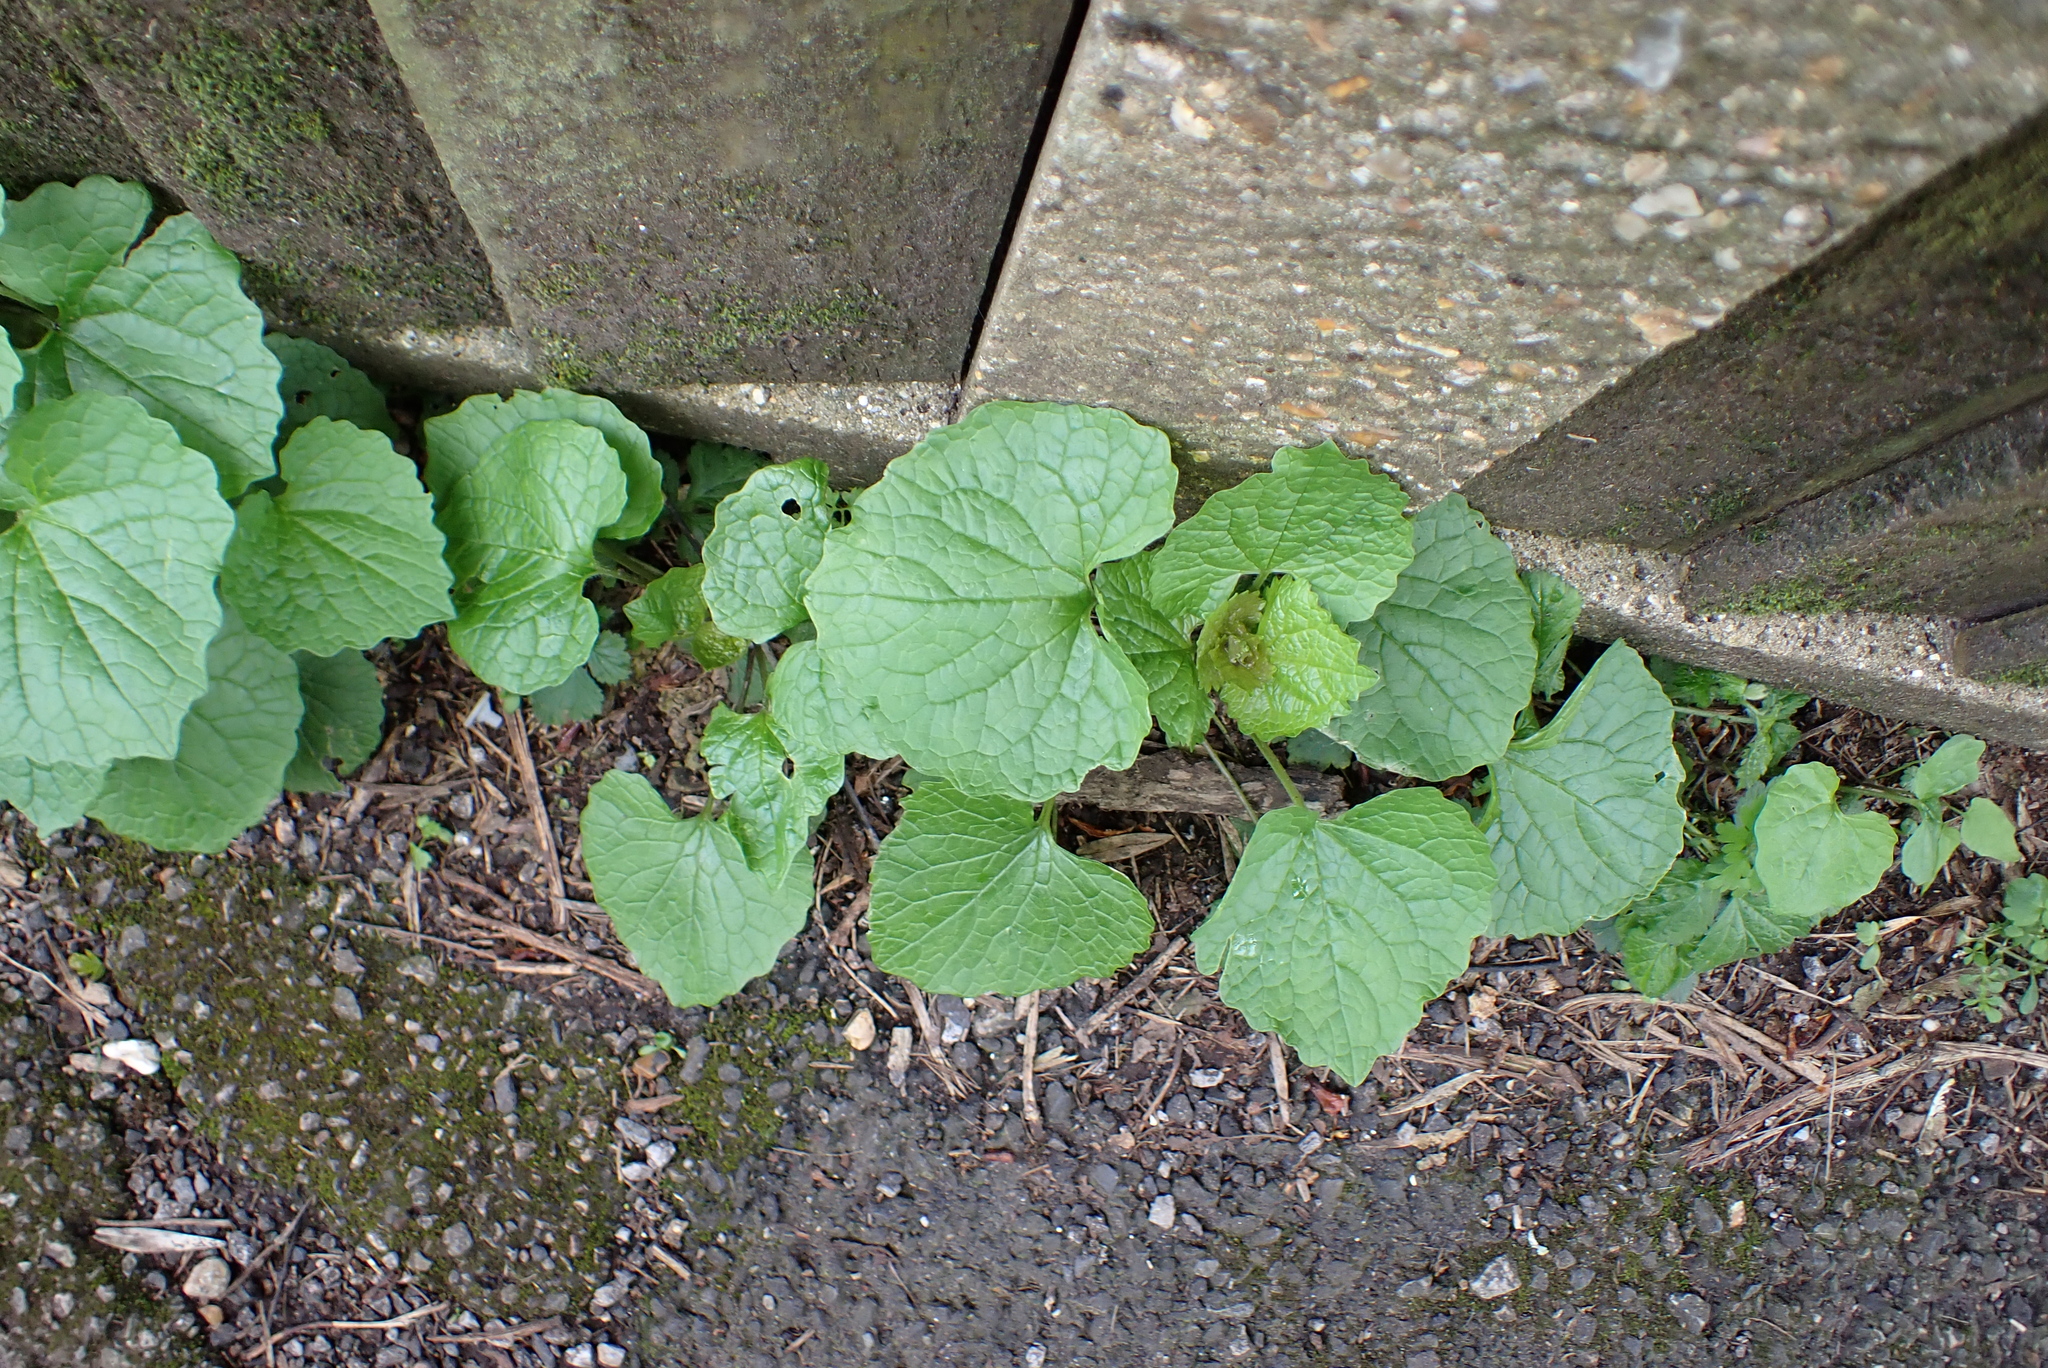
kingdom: Plantae
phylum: Tracheophyta
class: Magnoliopsida
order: Brassicales
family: Brassicaceae
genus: Alliaria
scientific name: Alliaria petiolata
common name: Garlic mustard
